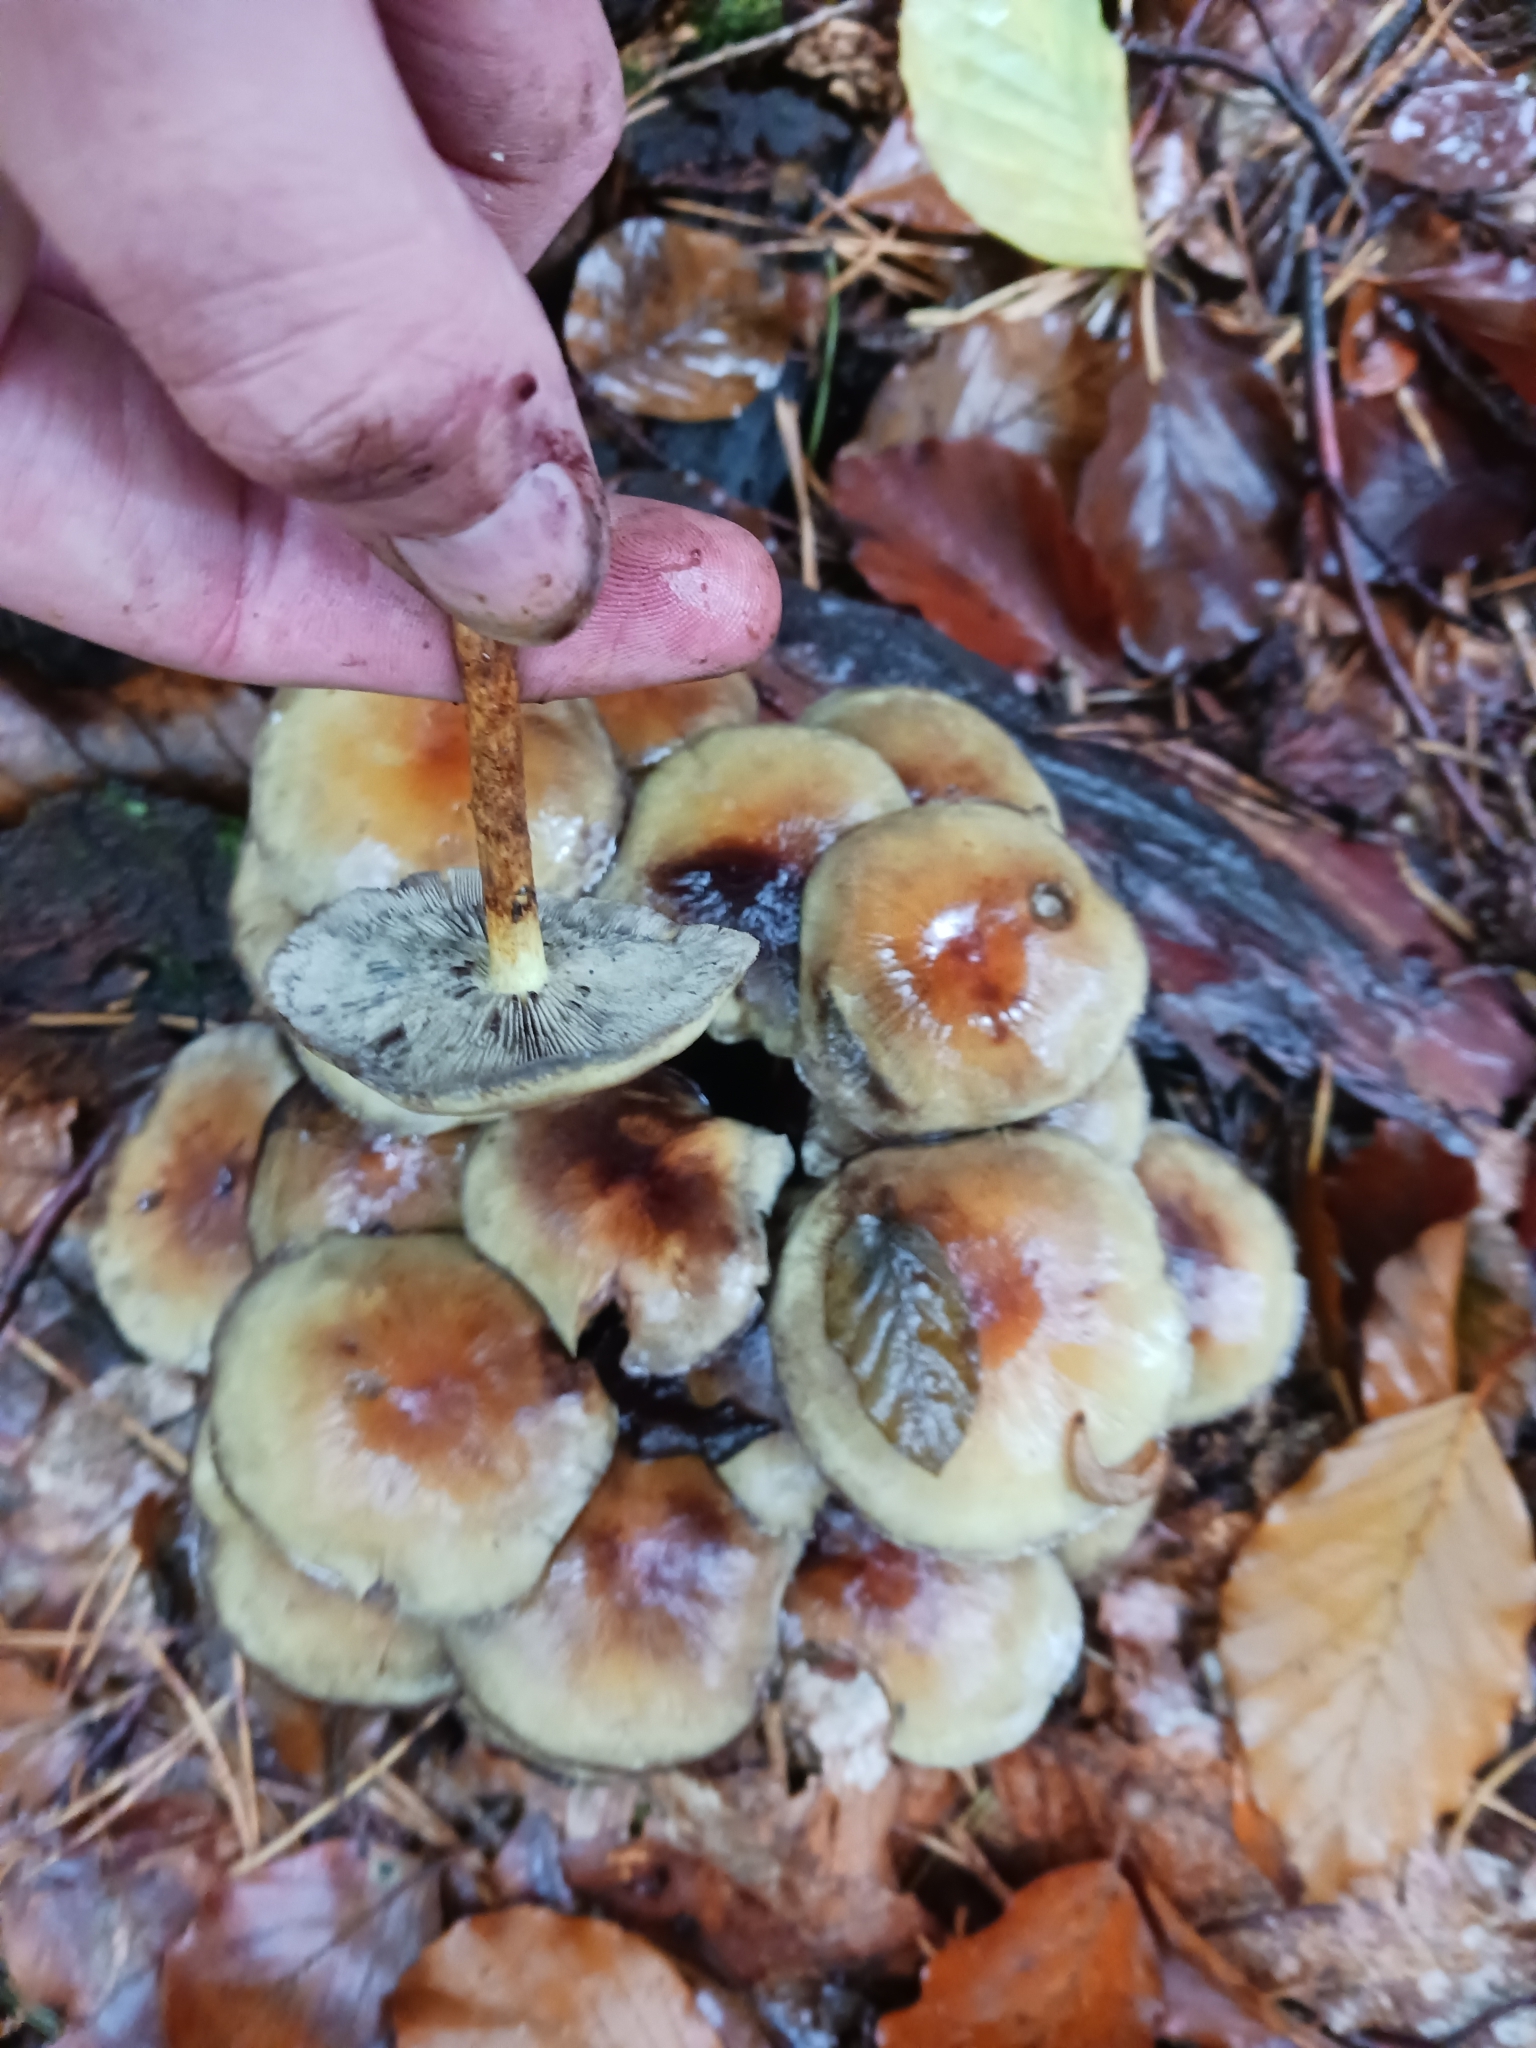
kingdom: Fungi
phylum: Basidiomycota
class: Agaricomycetes
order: Agaricales
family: Strophariaceae
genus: Hypholoma
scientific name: Hypholoma fasciculare
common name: Sulphur tuft
